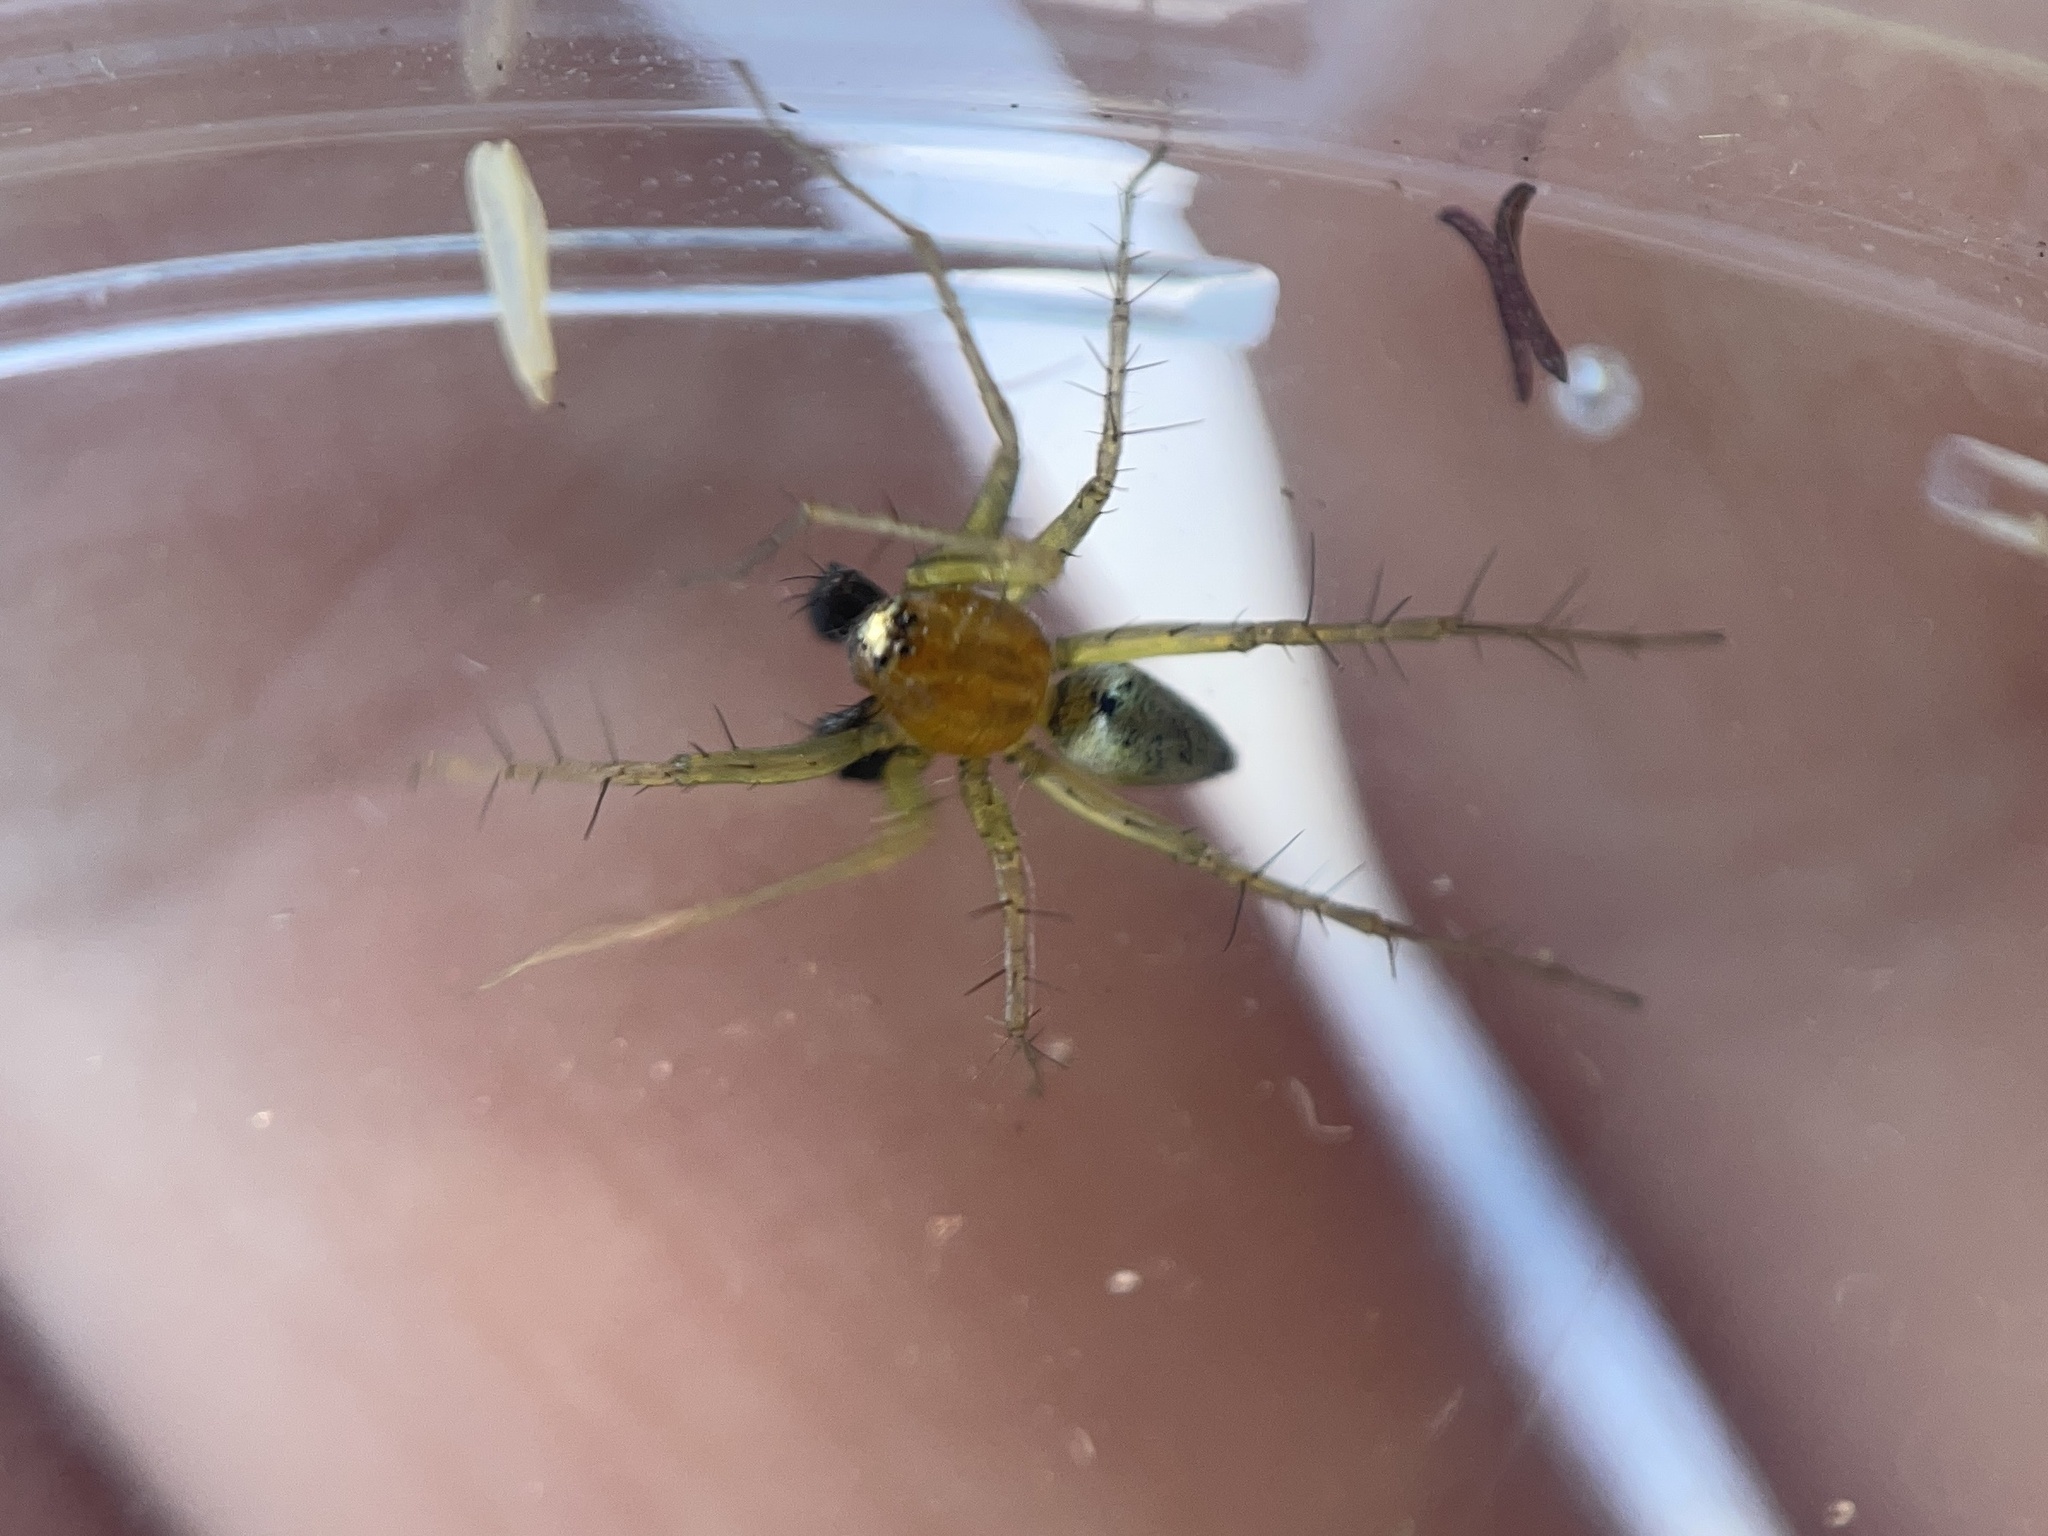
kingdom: Animalia
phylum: Arthropoda
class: Arachnida
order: Araneae
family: Oxyopidae
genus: Oxyopes
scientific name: Oxyopes salticus
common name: Lynx spiders
